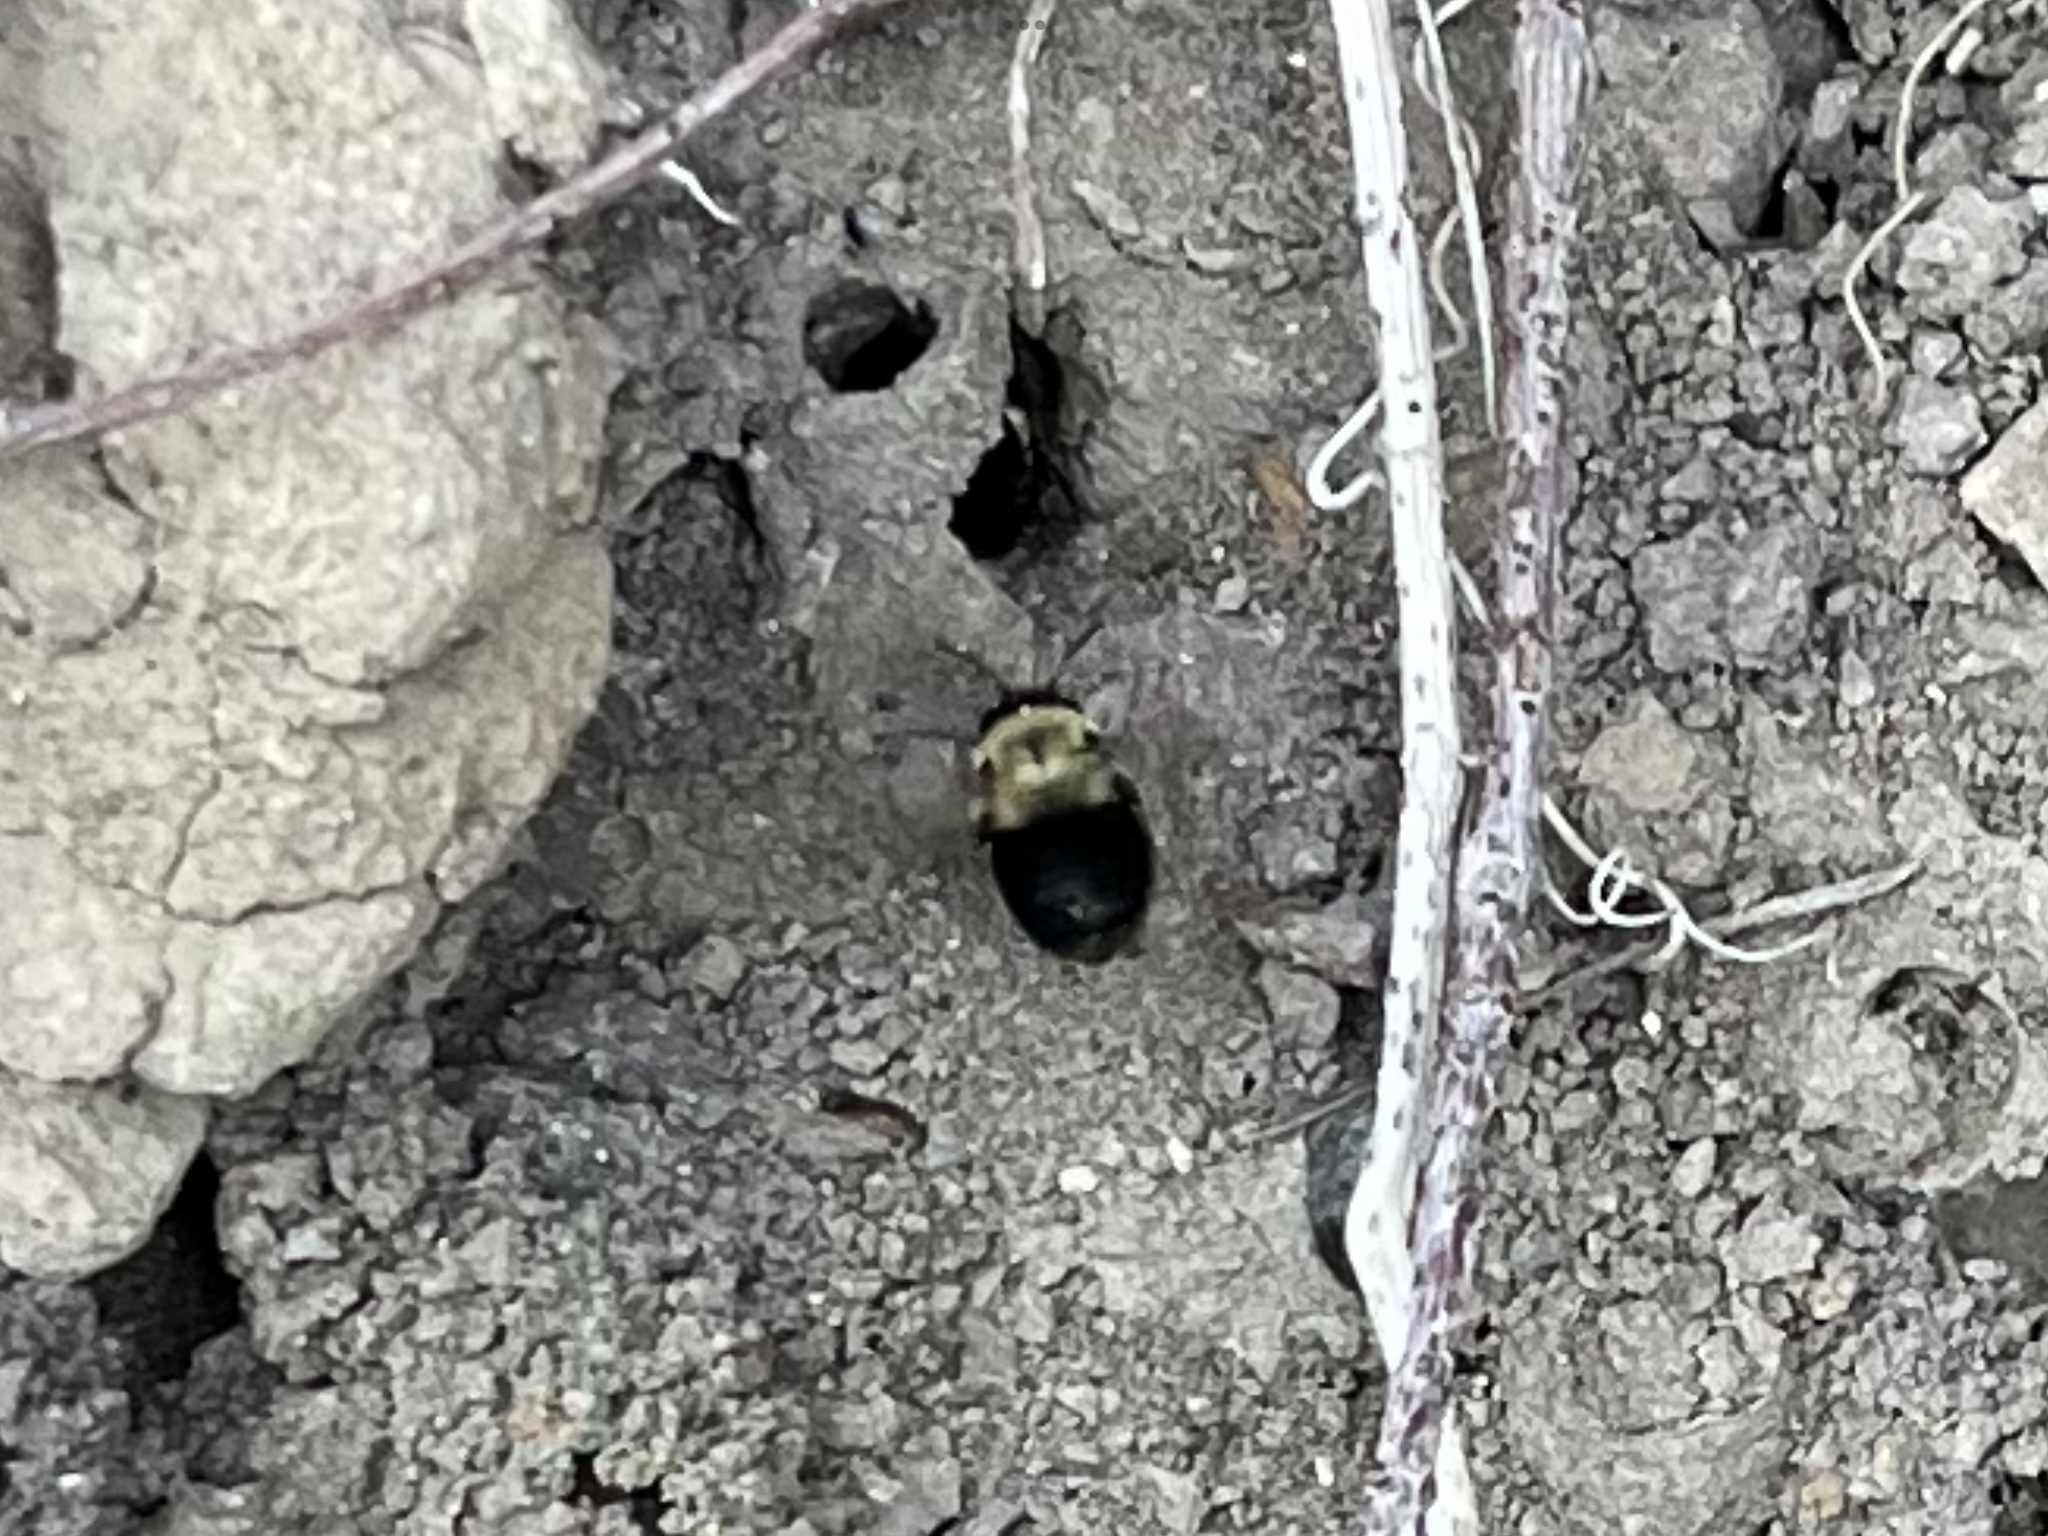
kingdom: Animalia
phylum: Arthropoda
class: Insecta
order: Hymenoptera
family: Apidae
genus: Anthophora
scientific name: Anthophora abrupta
